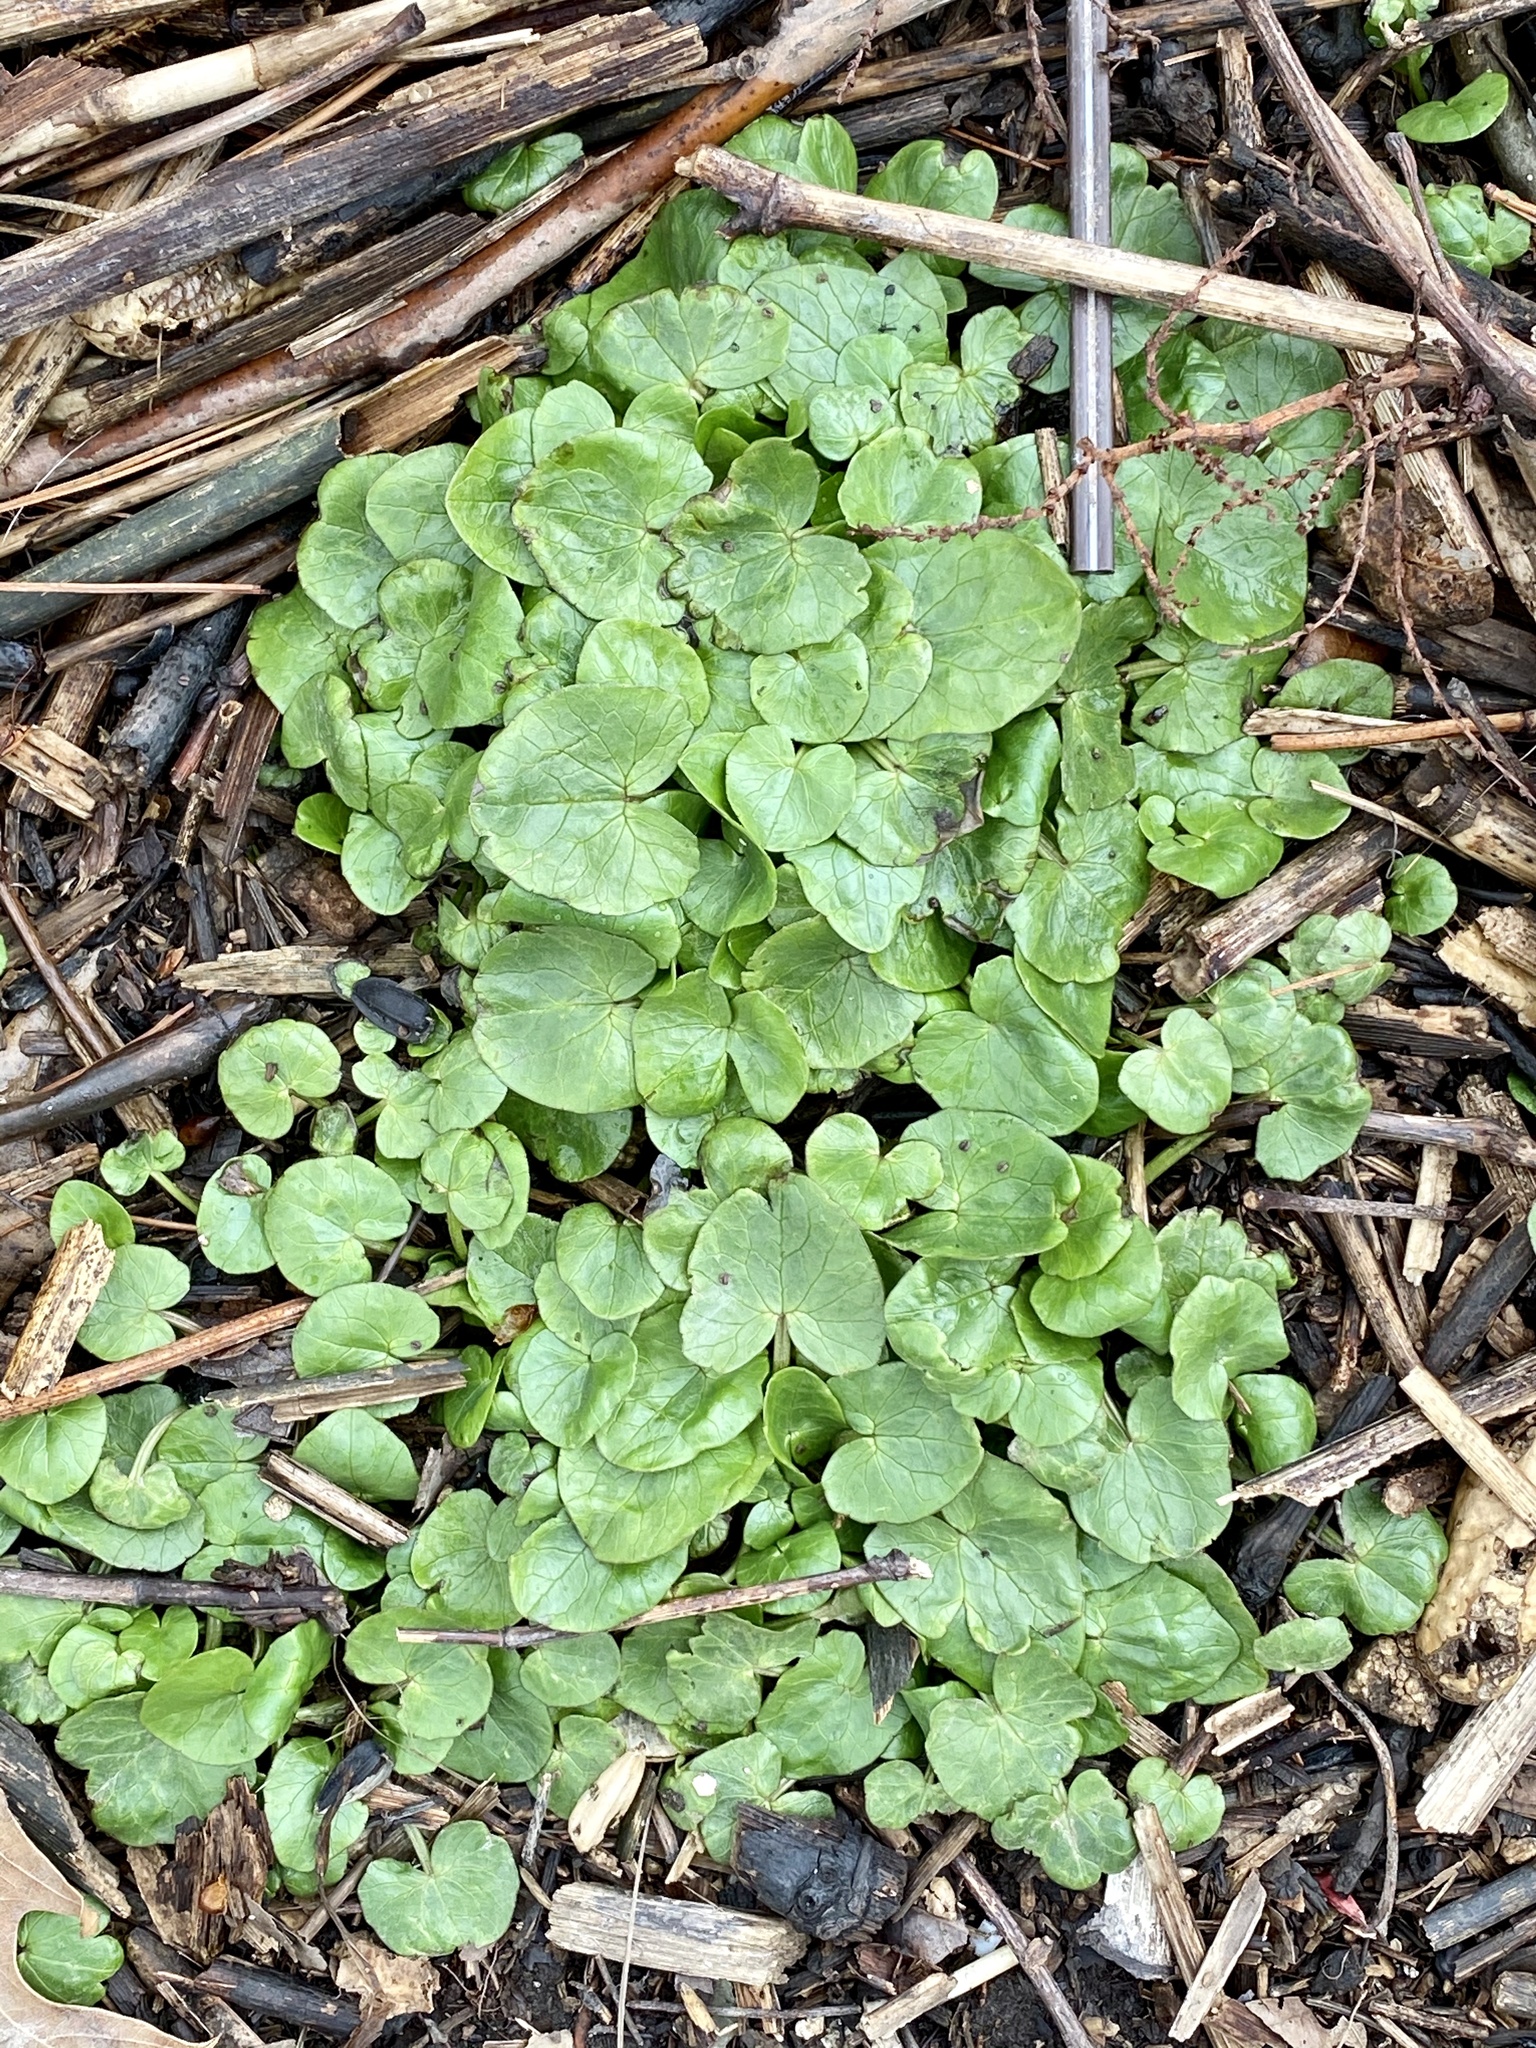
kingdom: Plantae
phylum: Tracheophyta
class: Magnoliopsida
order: Ranunculales
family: Ranunculaceae
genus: Ficaria
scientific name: Ficaria verna
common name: Lesser celandine
